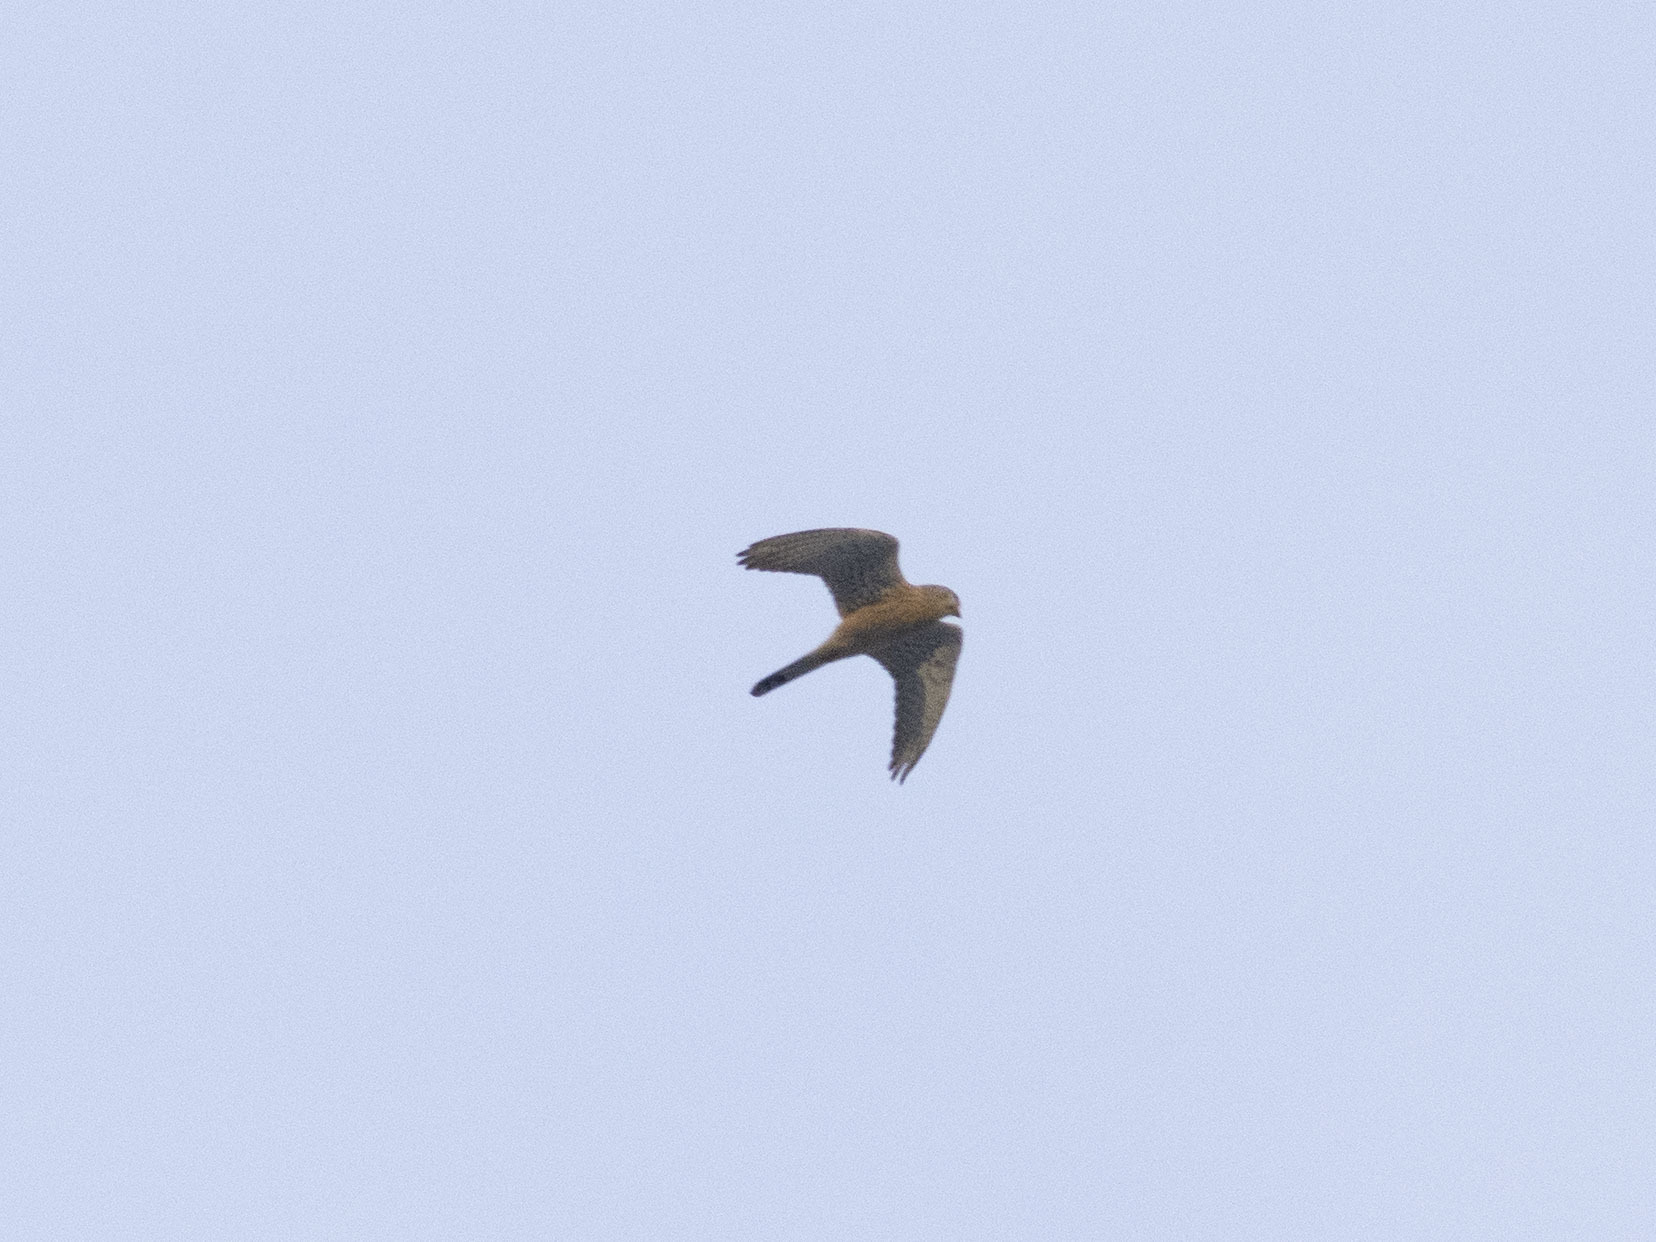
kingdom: Animalia
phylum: Chordata
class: Aves
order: Falconiformes
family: Falconidae
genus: Falco
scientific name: Falco tinnunculus
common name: Common kestrel
